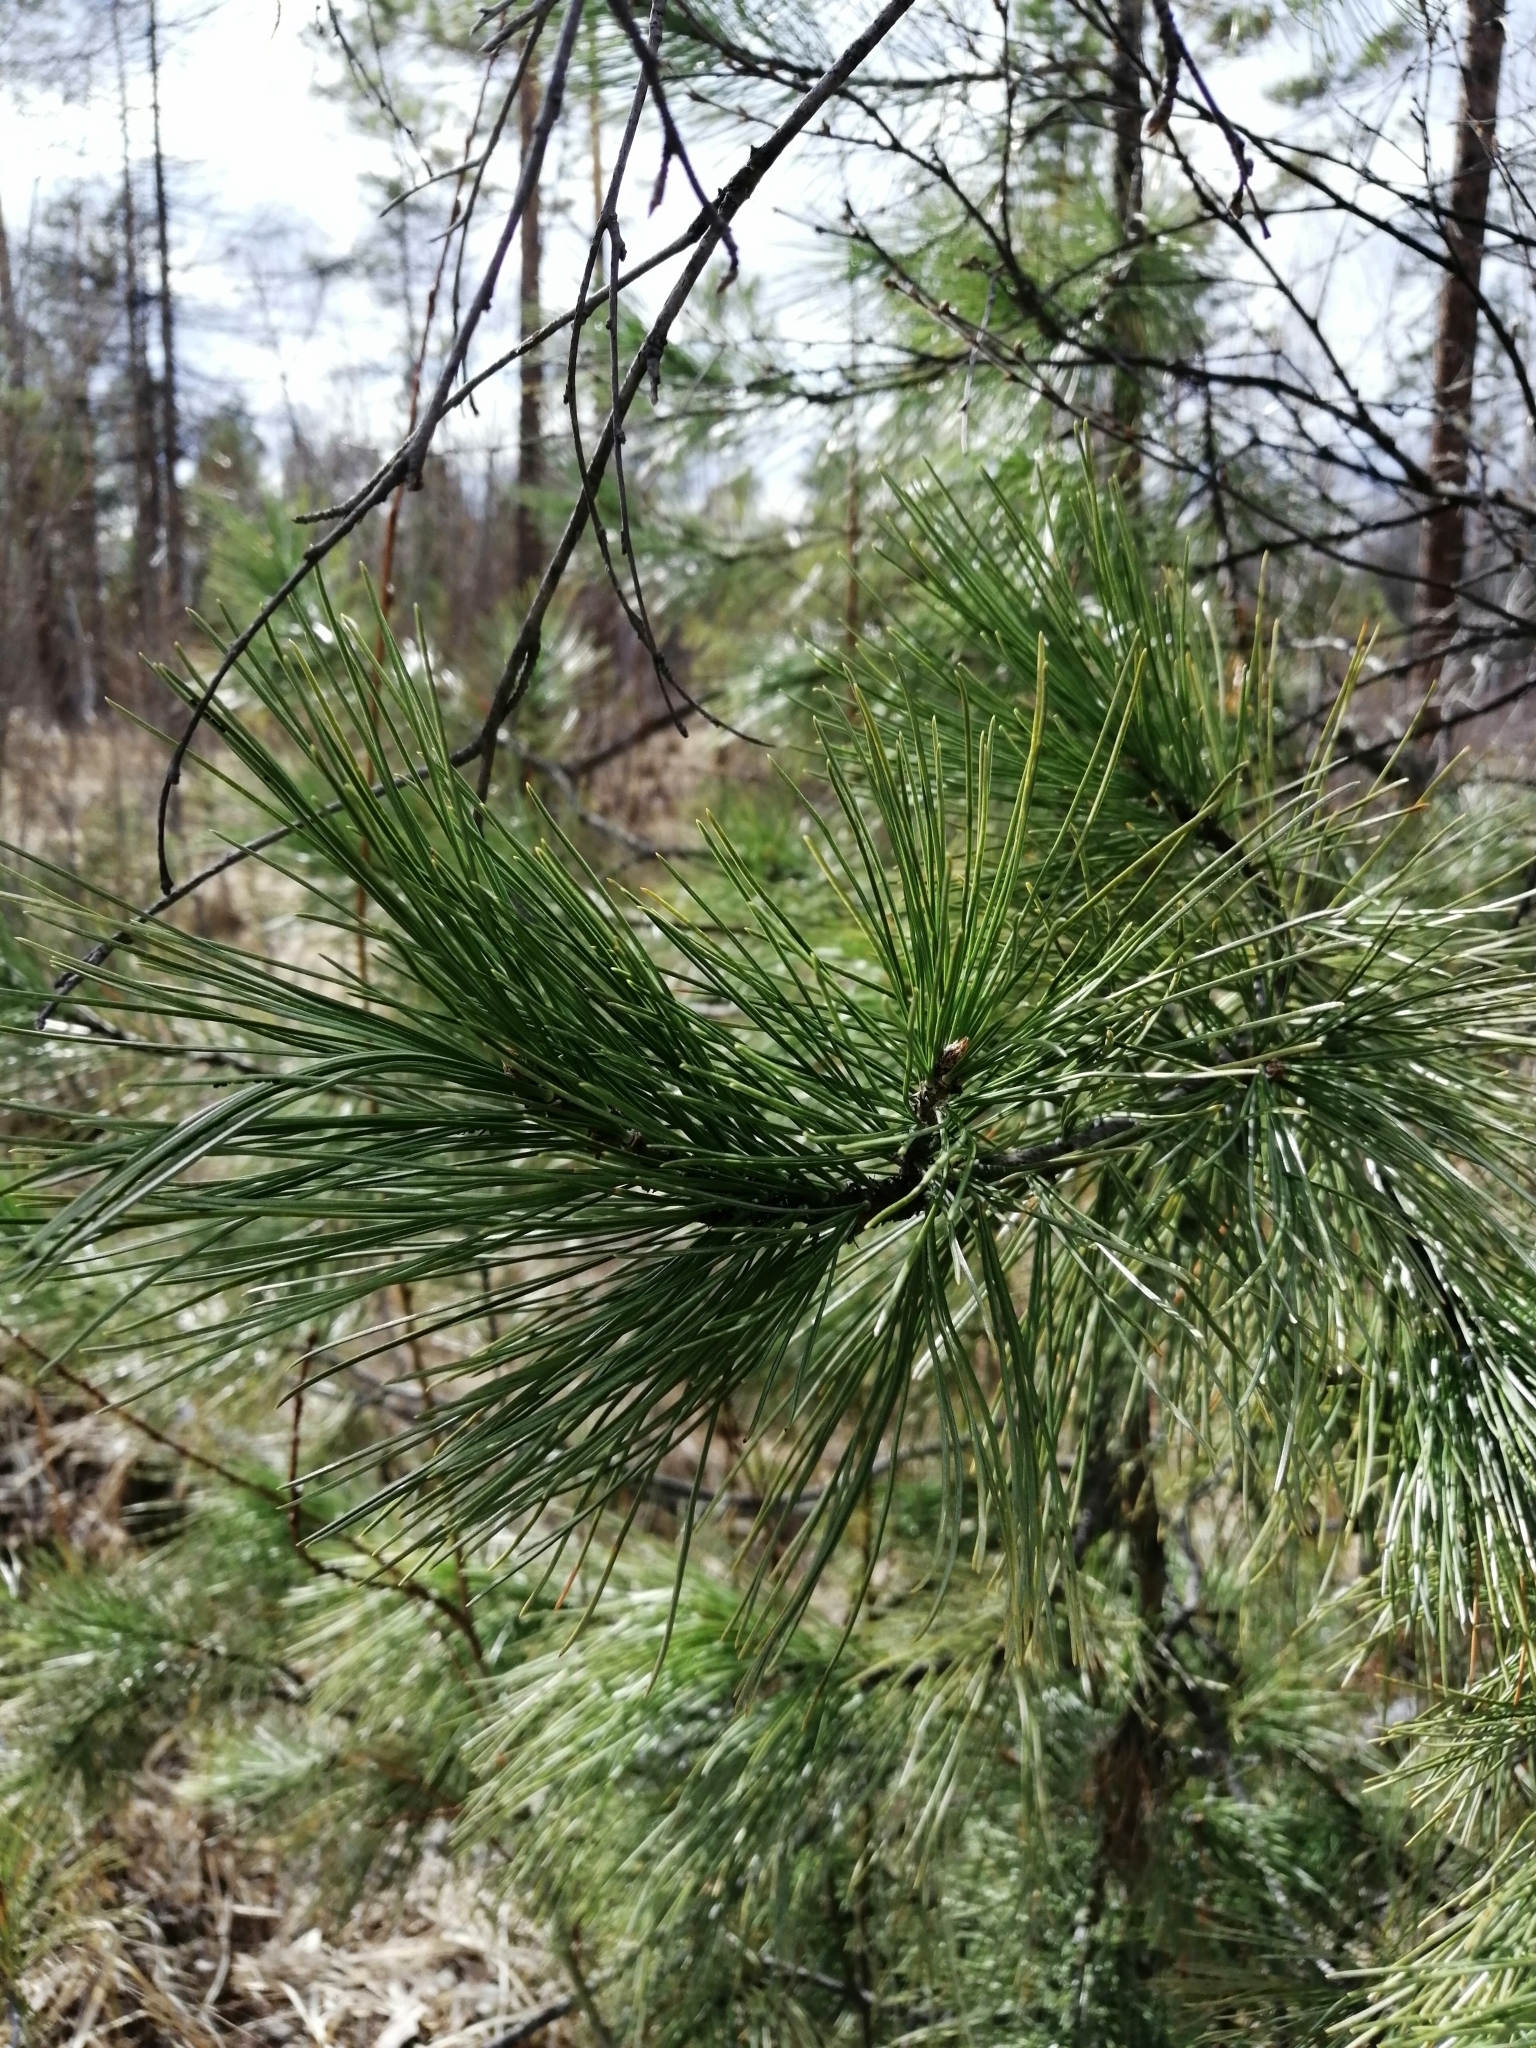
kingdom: Plantae
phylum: Tracheophyta
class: Pinopsida
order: Pinales
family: Pinaceae
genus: Pinus
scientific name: Pinus sibirica
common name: Siberian pine
